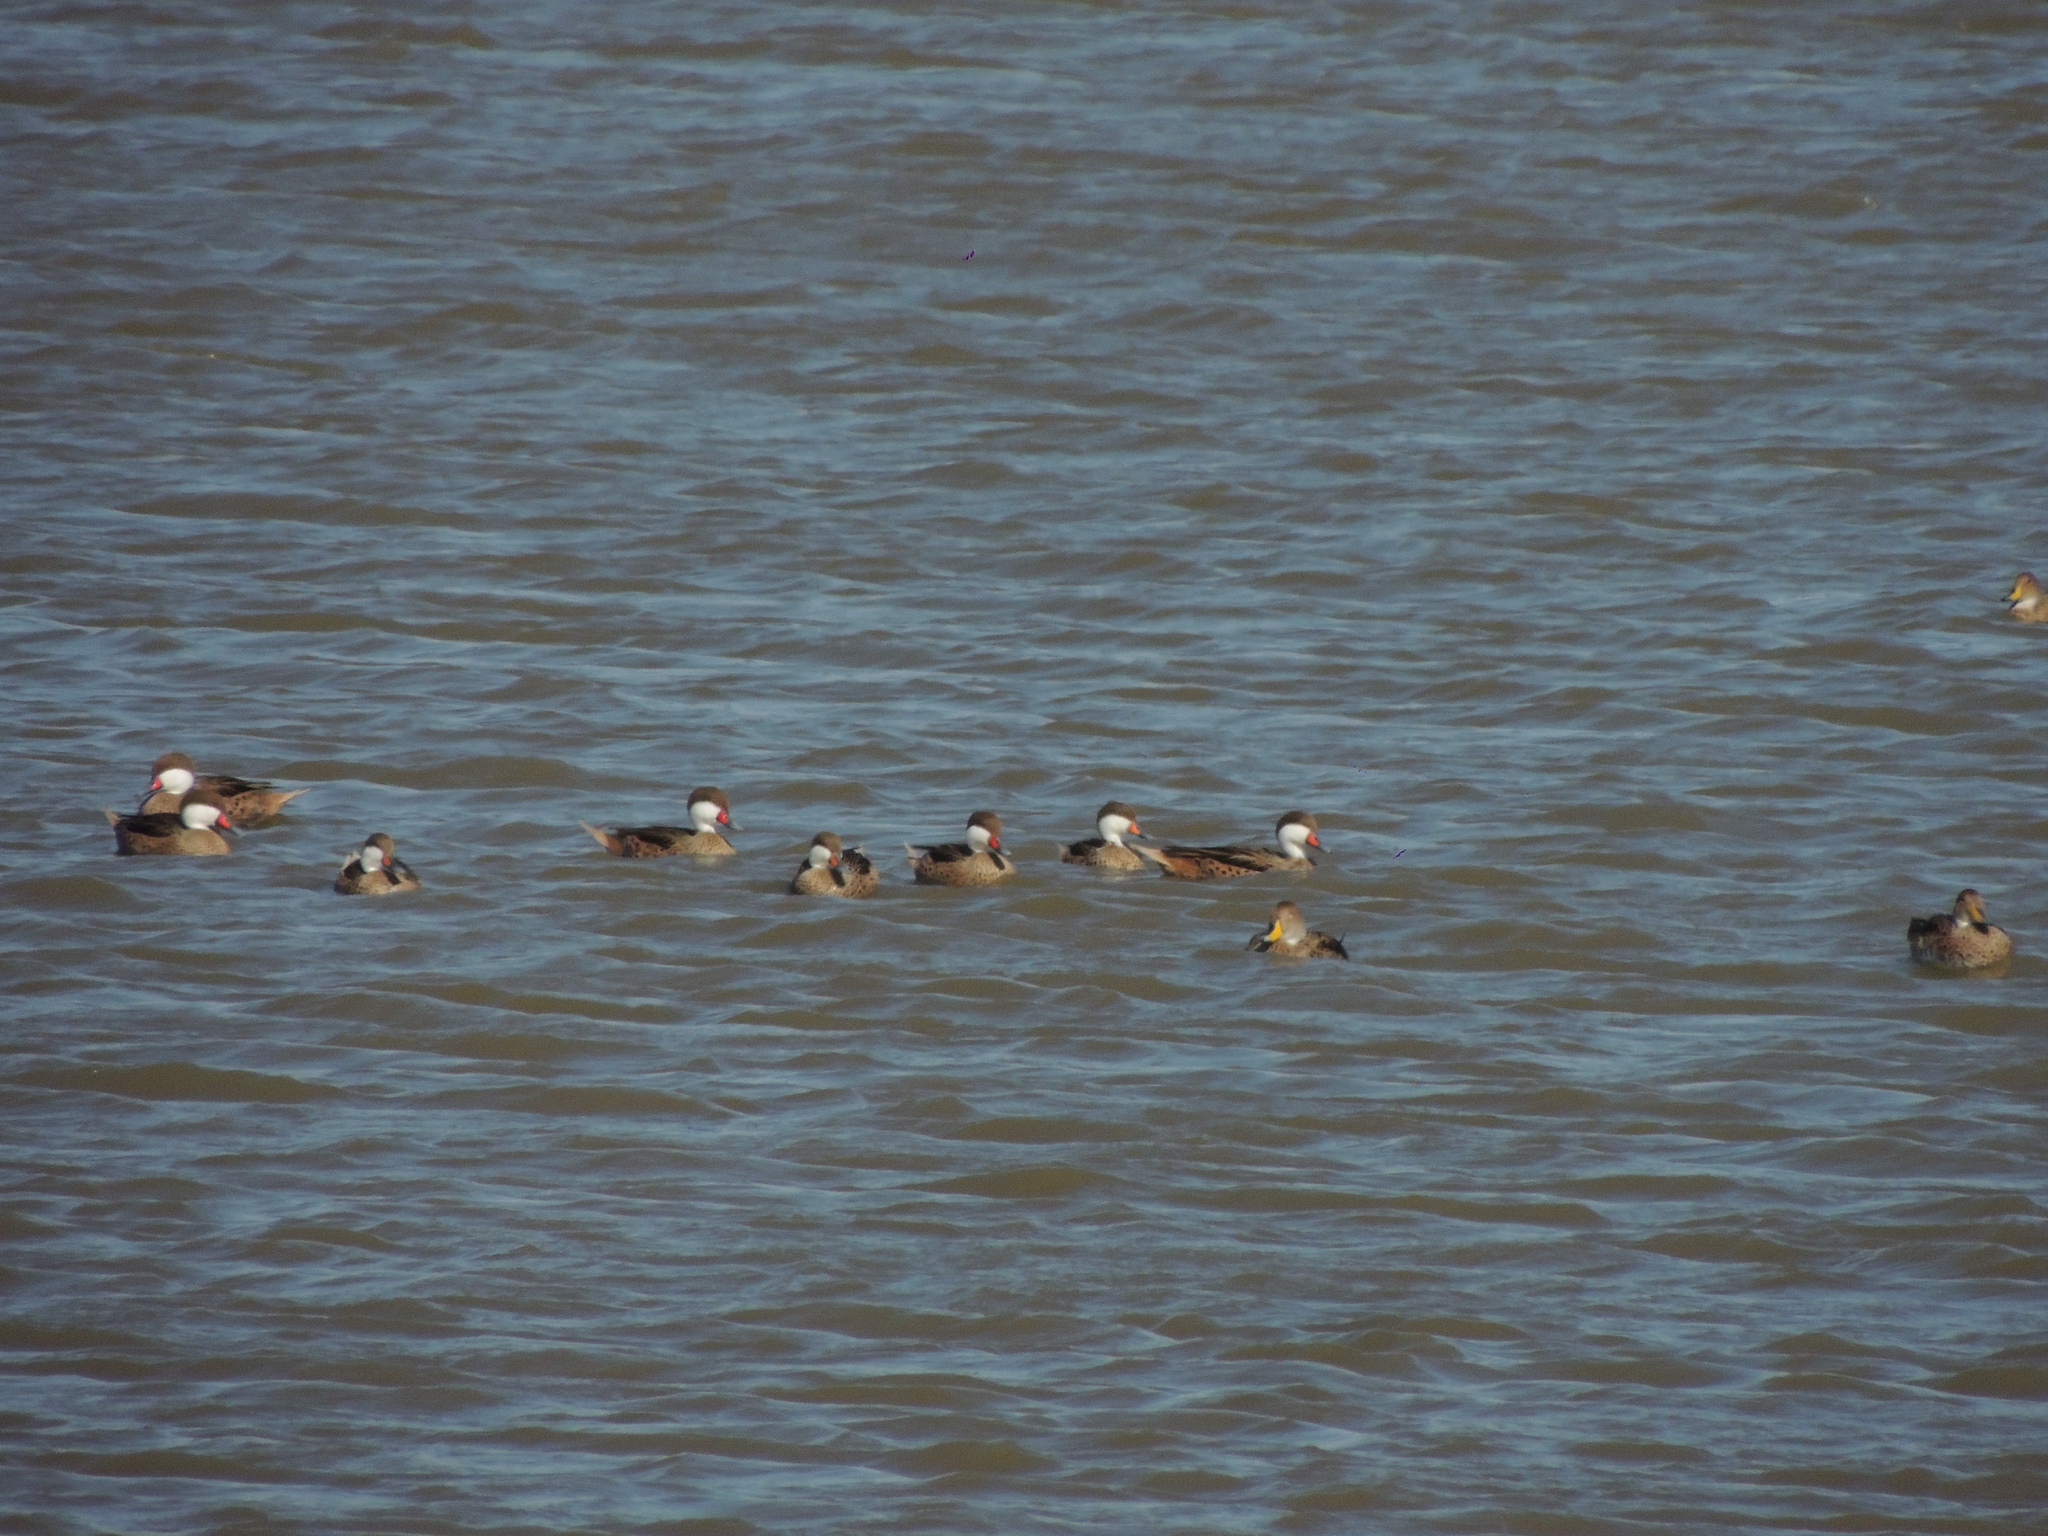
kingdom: Animalia
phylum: Chordata
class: Aves
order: Anseriformes
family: Anatidae
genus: Anas
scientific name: Anas bahamensis
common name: White-cheeked pintail
